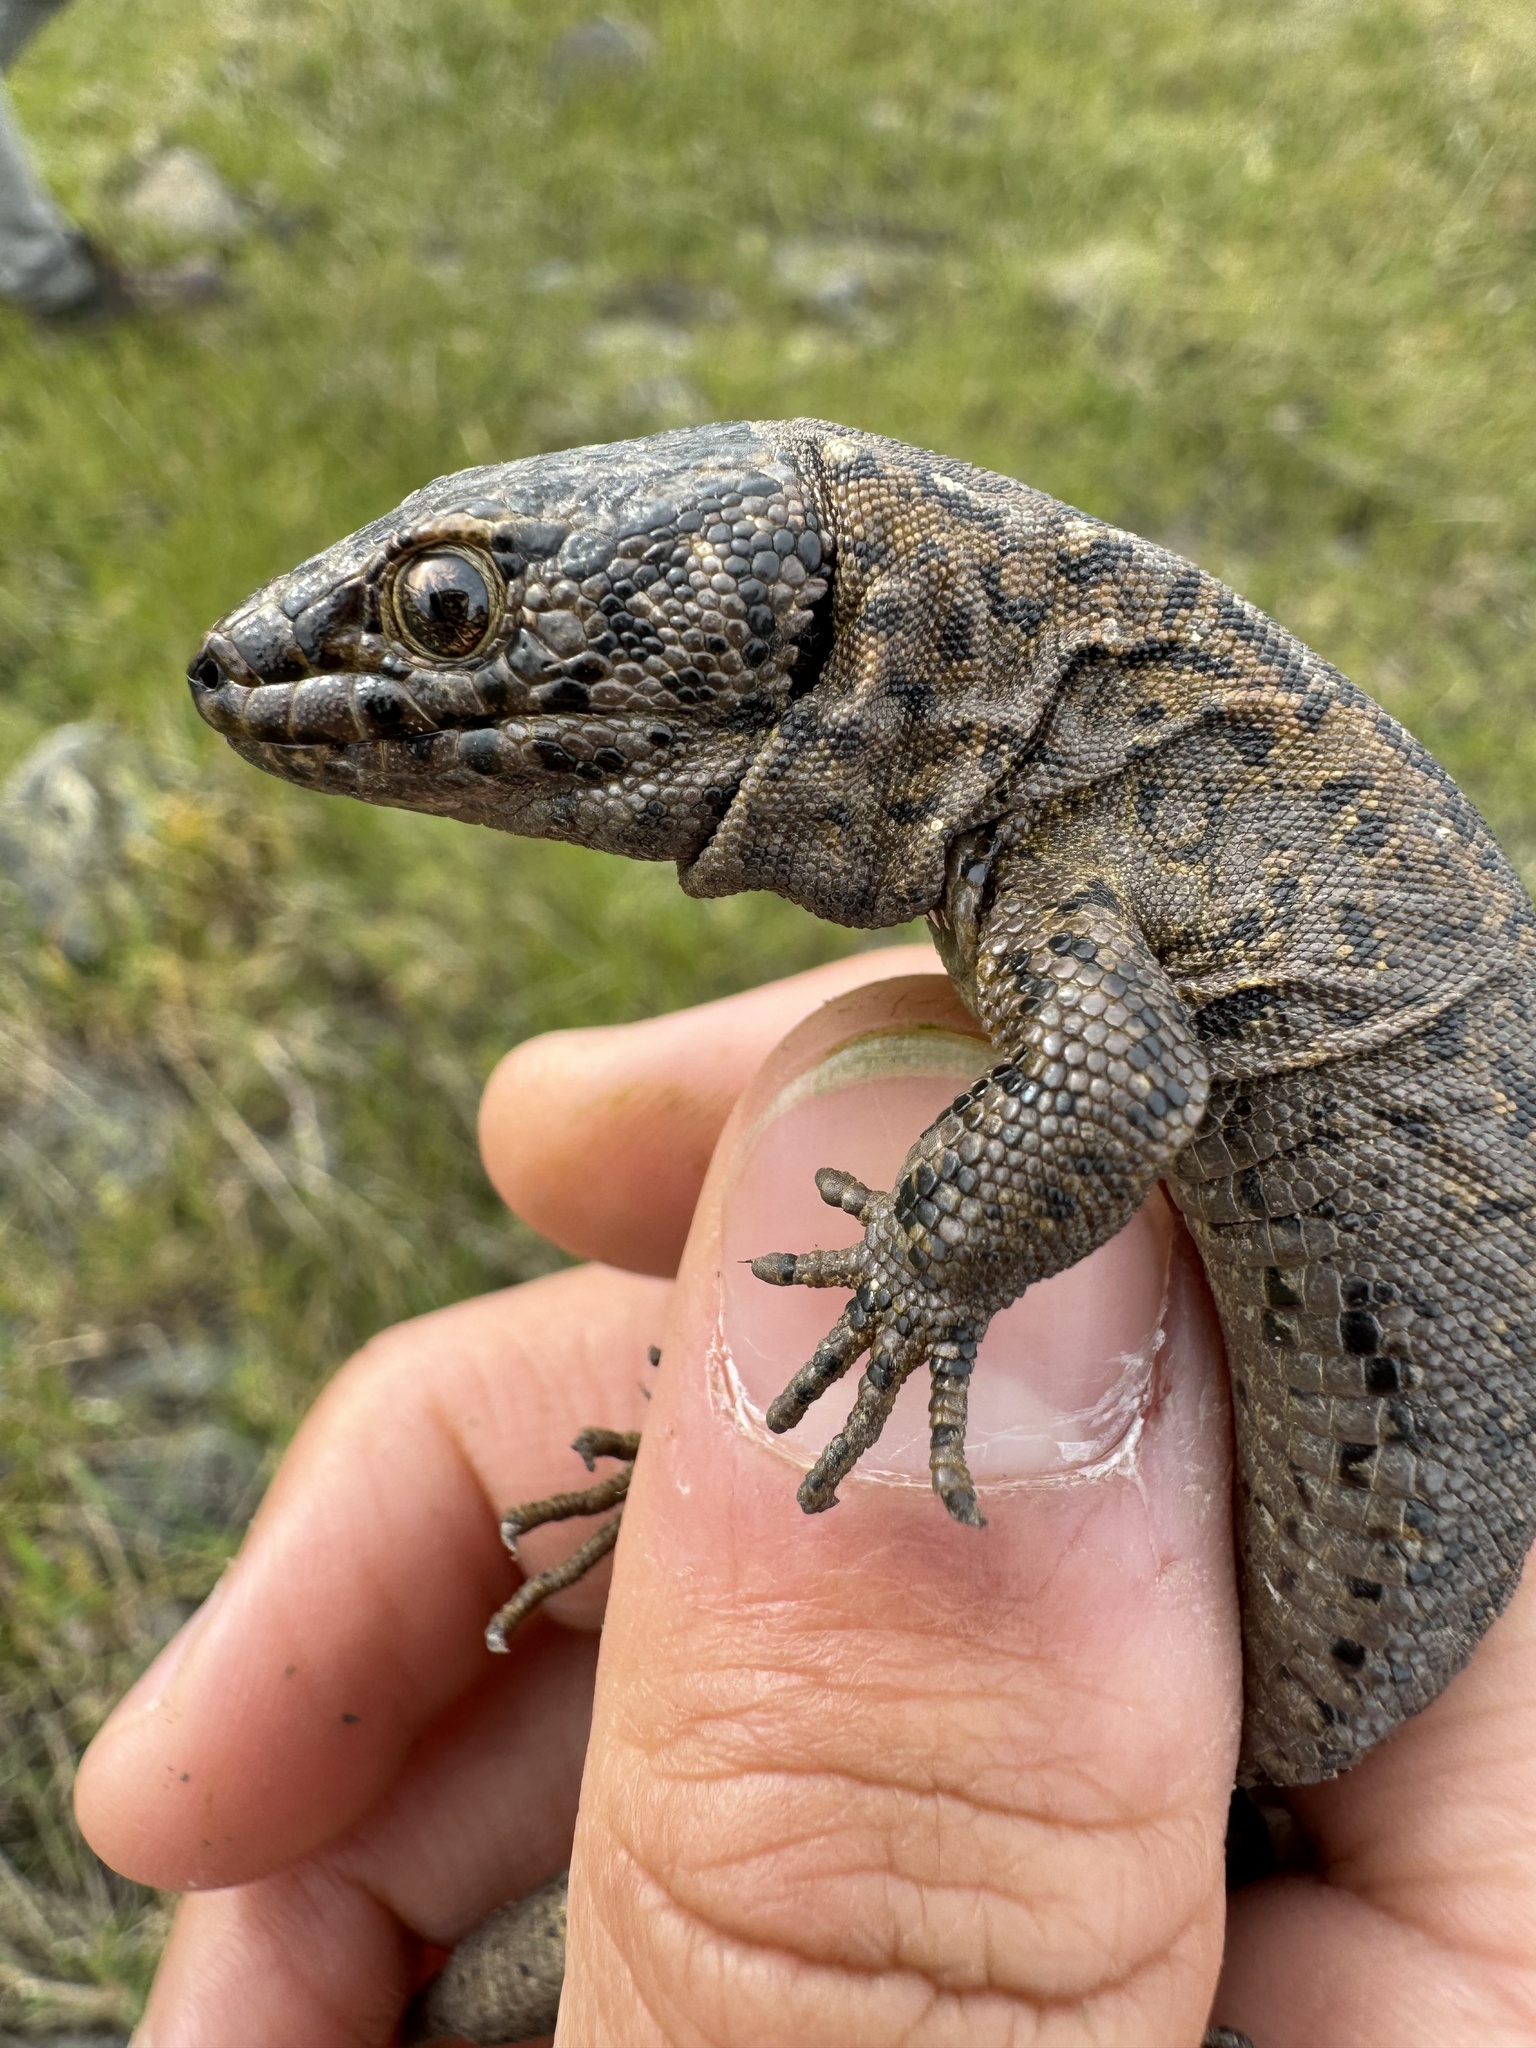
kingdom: Animalia
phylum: Chordata
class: Squamata
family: Xantusiidae
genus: Xantusia
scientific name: Xantusia riversiana
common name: Island night lizard
